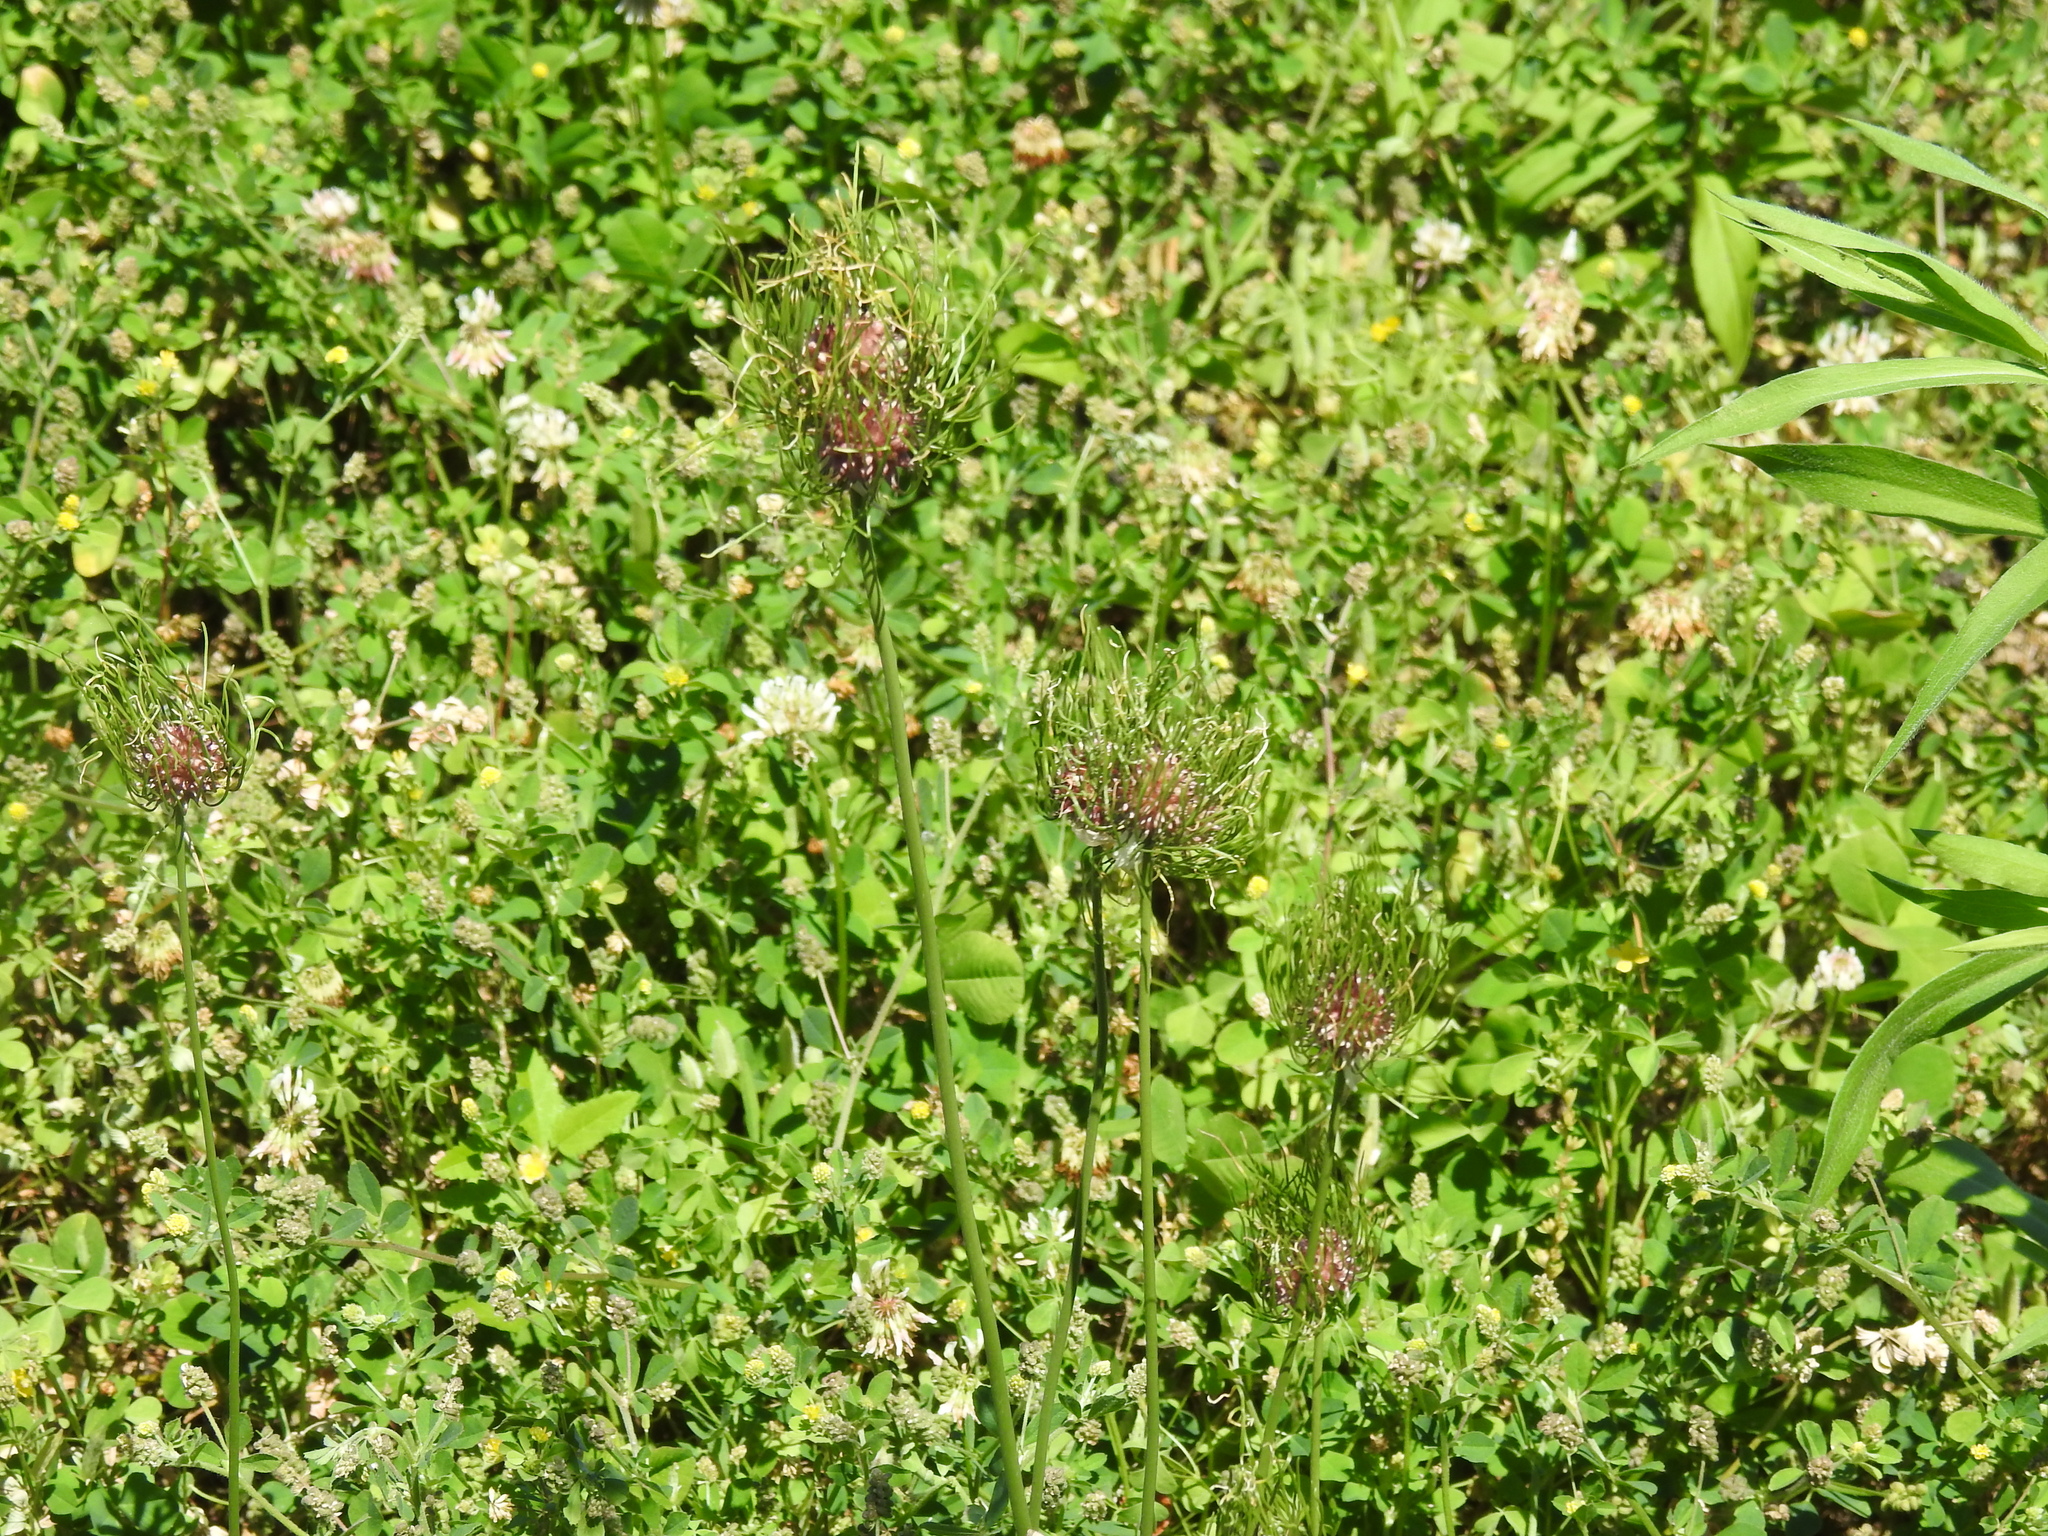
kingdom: Plantae
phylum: Tracheophyta
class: Liliopsida
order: Asparagales
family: Amaryllidaceae
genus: Allium
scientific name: Allium vineale
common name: Crow garlic
